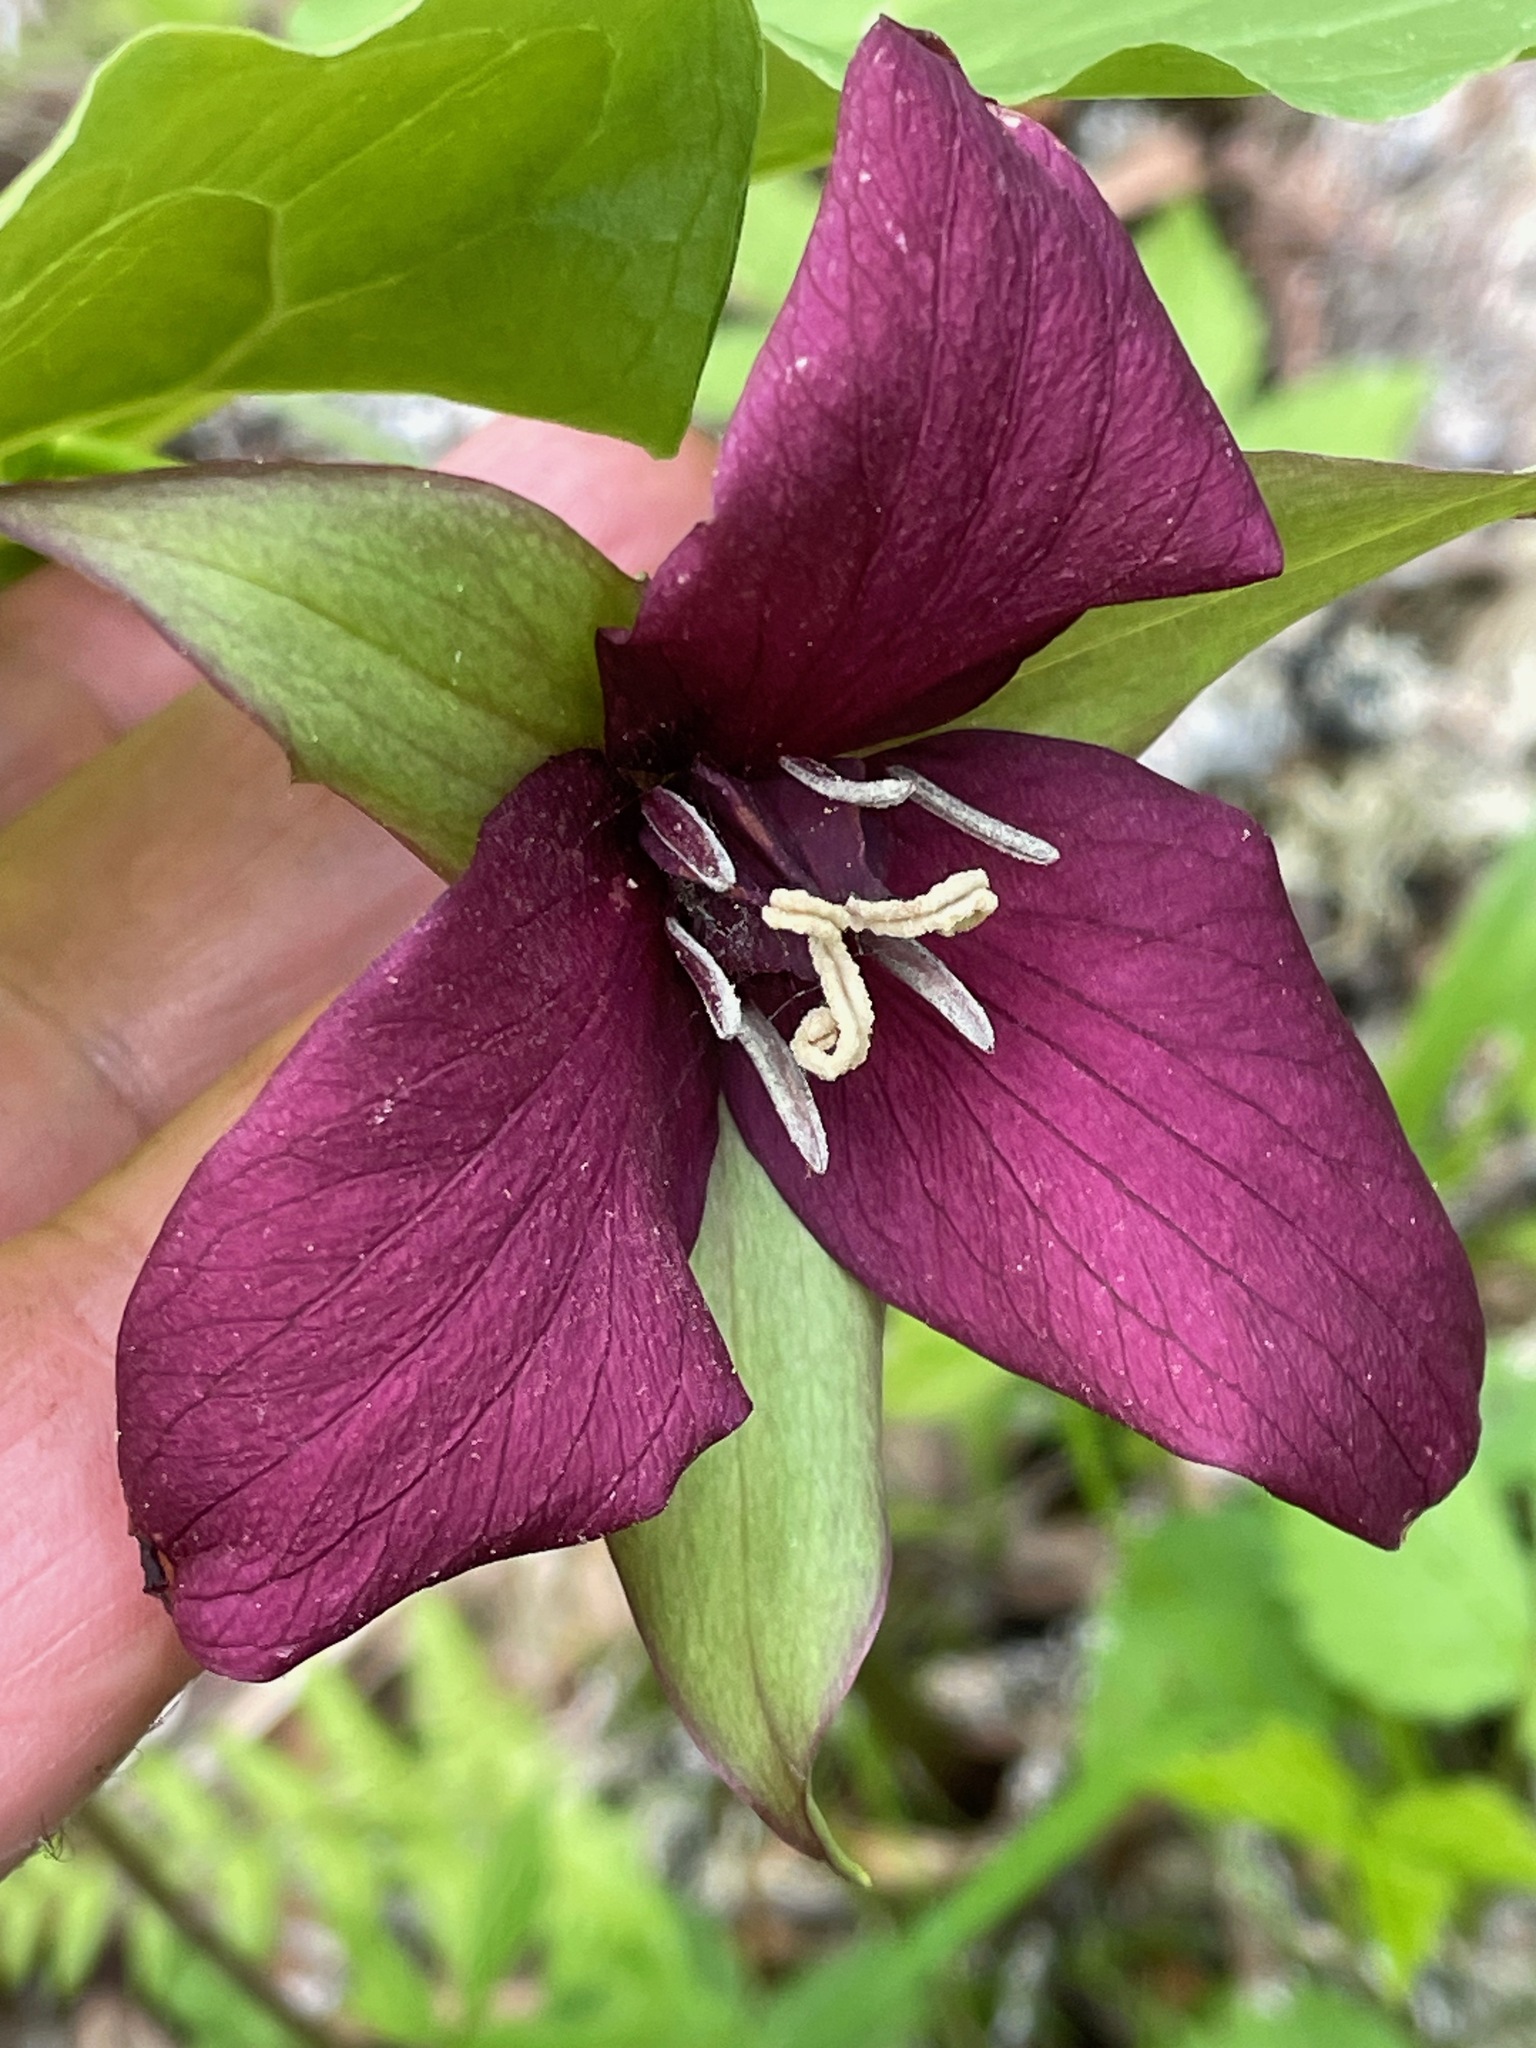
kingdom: Plantae
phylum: Tracheophyta
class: Liliopsida
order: Liliales
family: Melanthiaceae
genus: Trillium
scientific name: Trillium erectum
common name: Purple trillium
